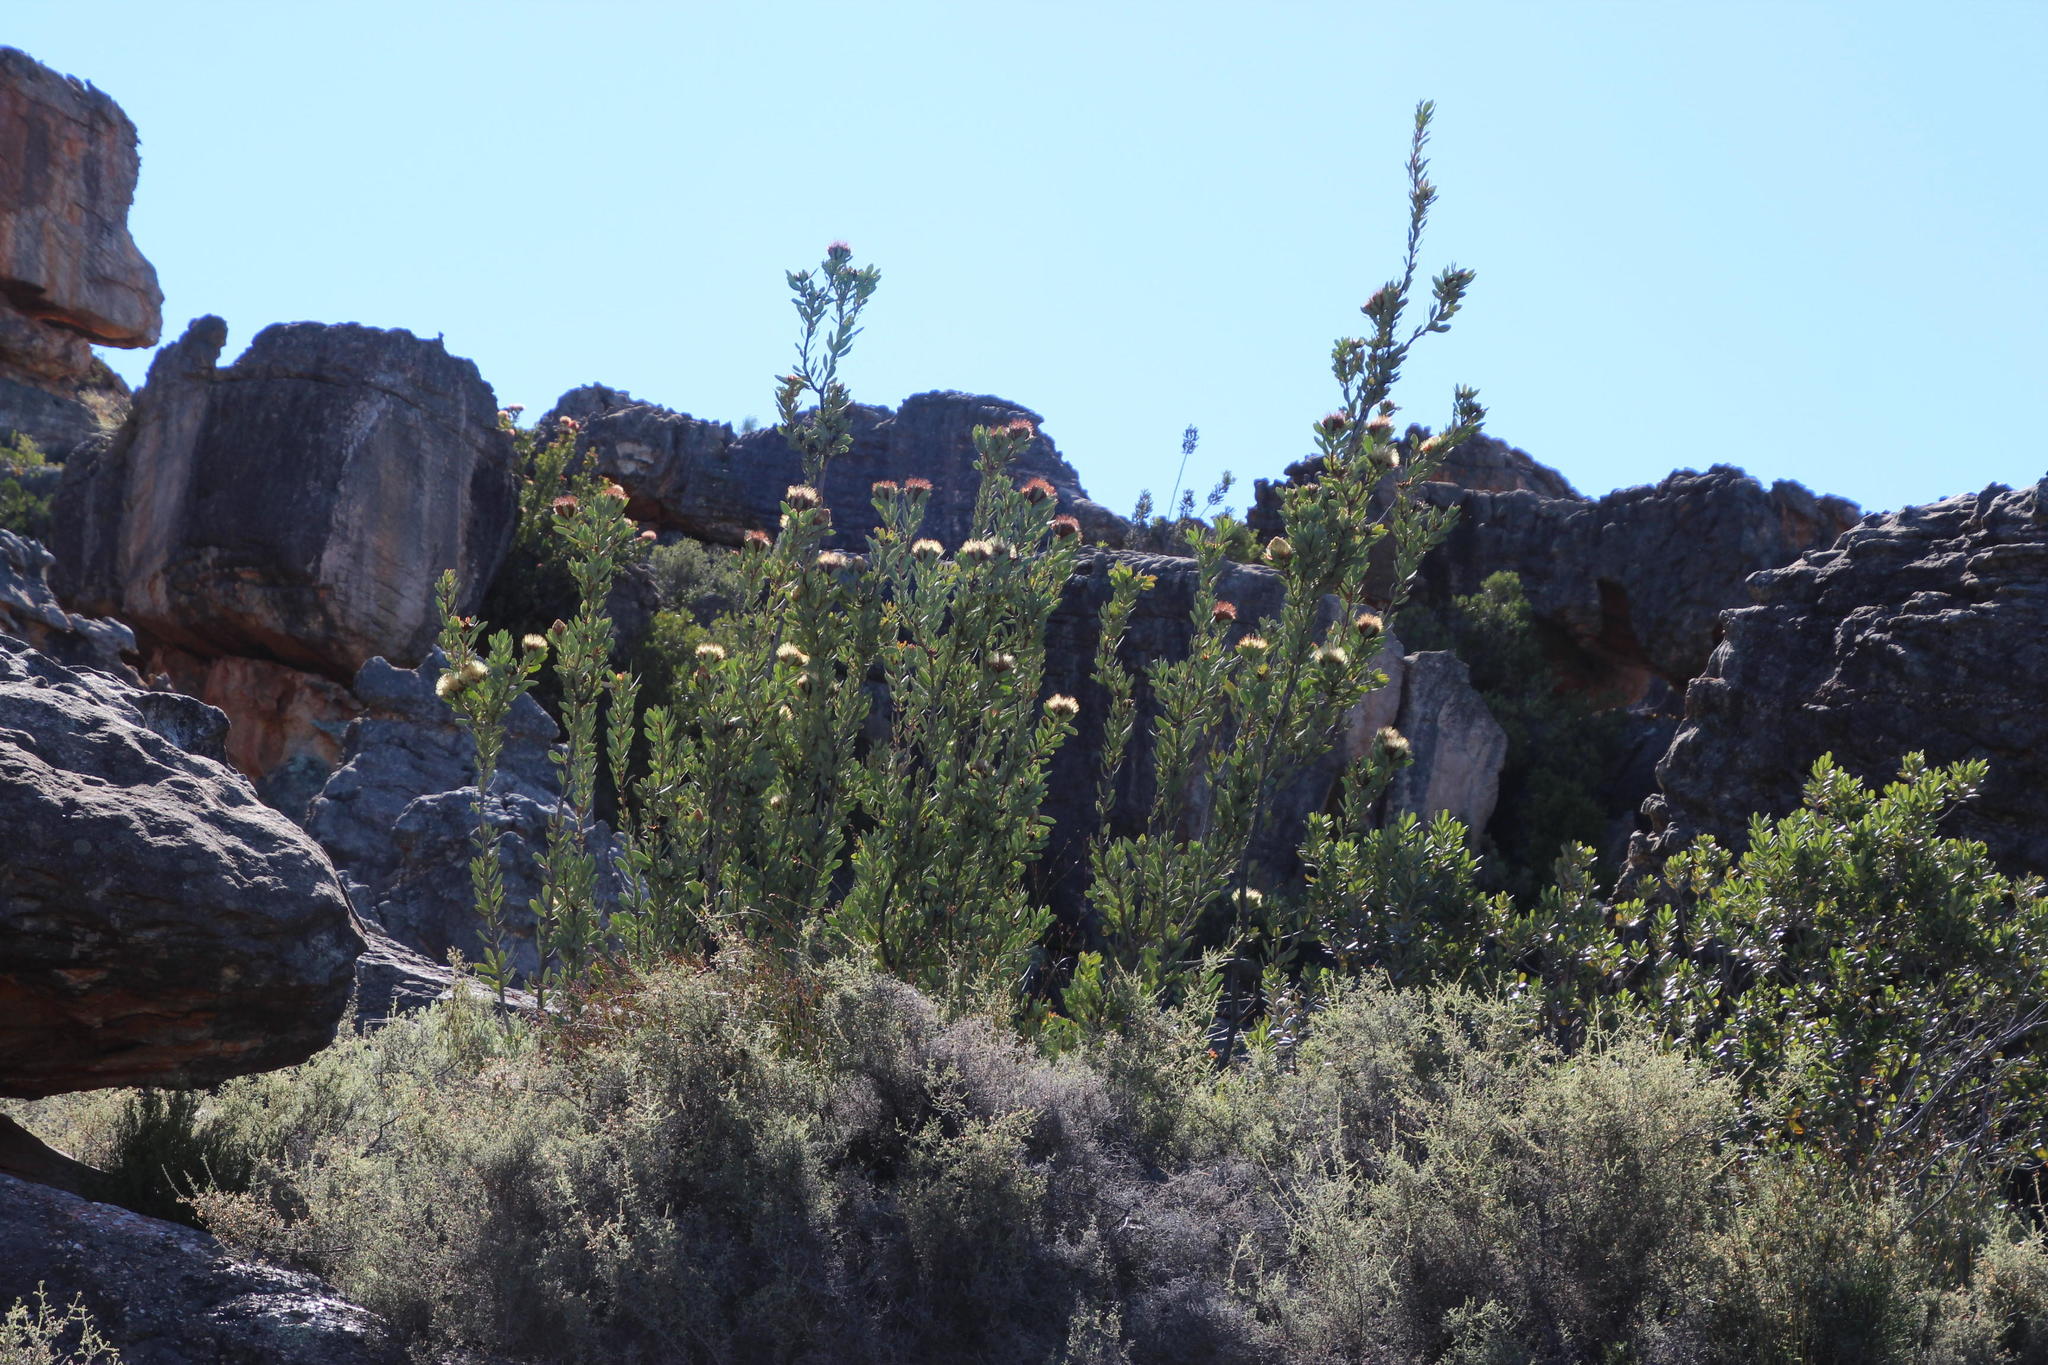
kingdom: Plantae
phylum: Tracheophyta
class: Magnoliopsida
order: Proteales
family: Proteaceae
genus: Protea
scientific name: Protea glabra
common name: Chestnut sugarbush
